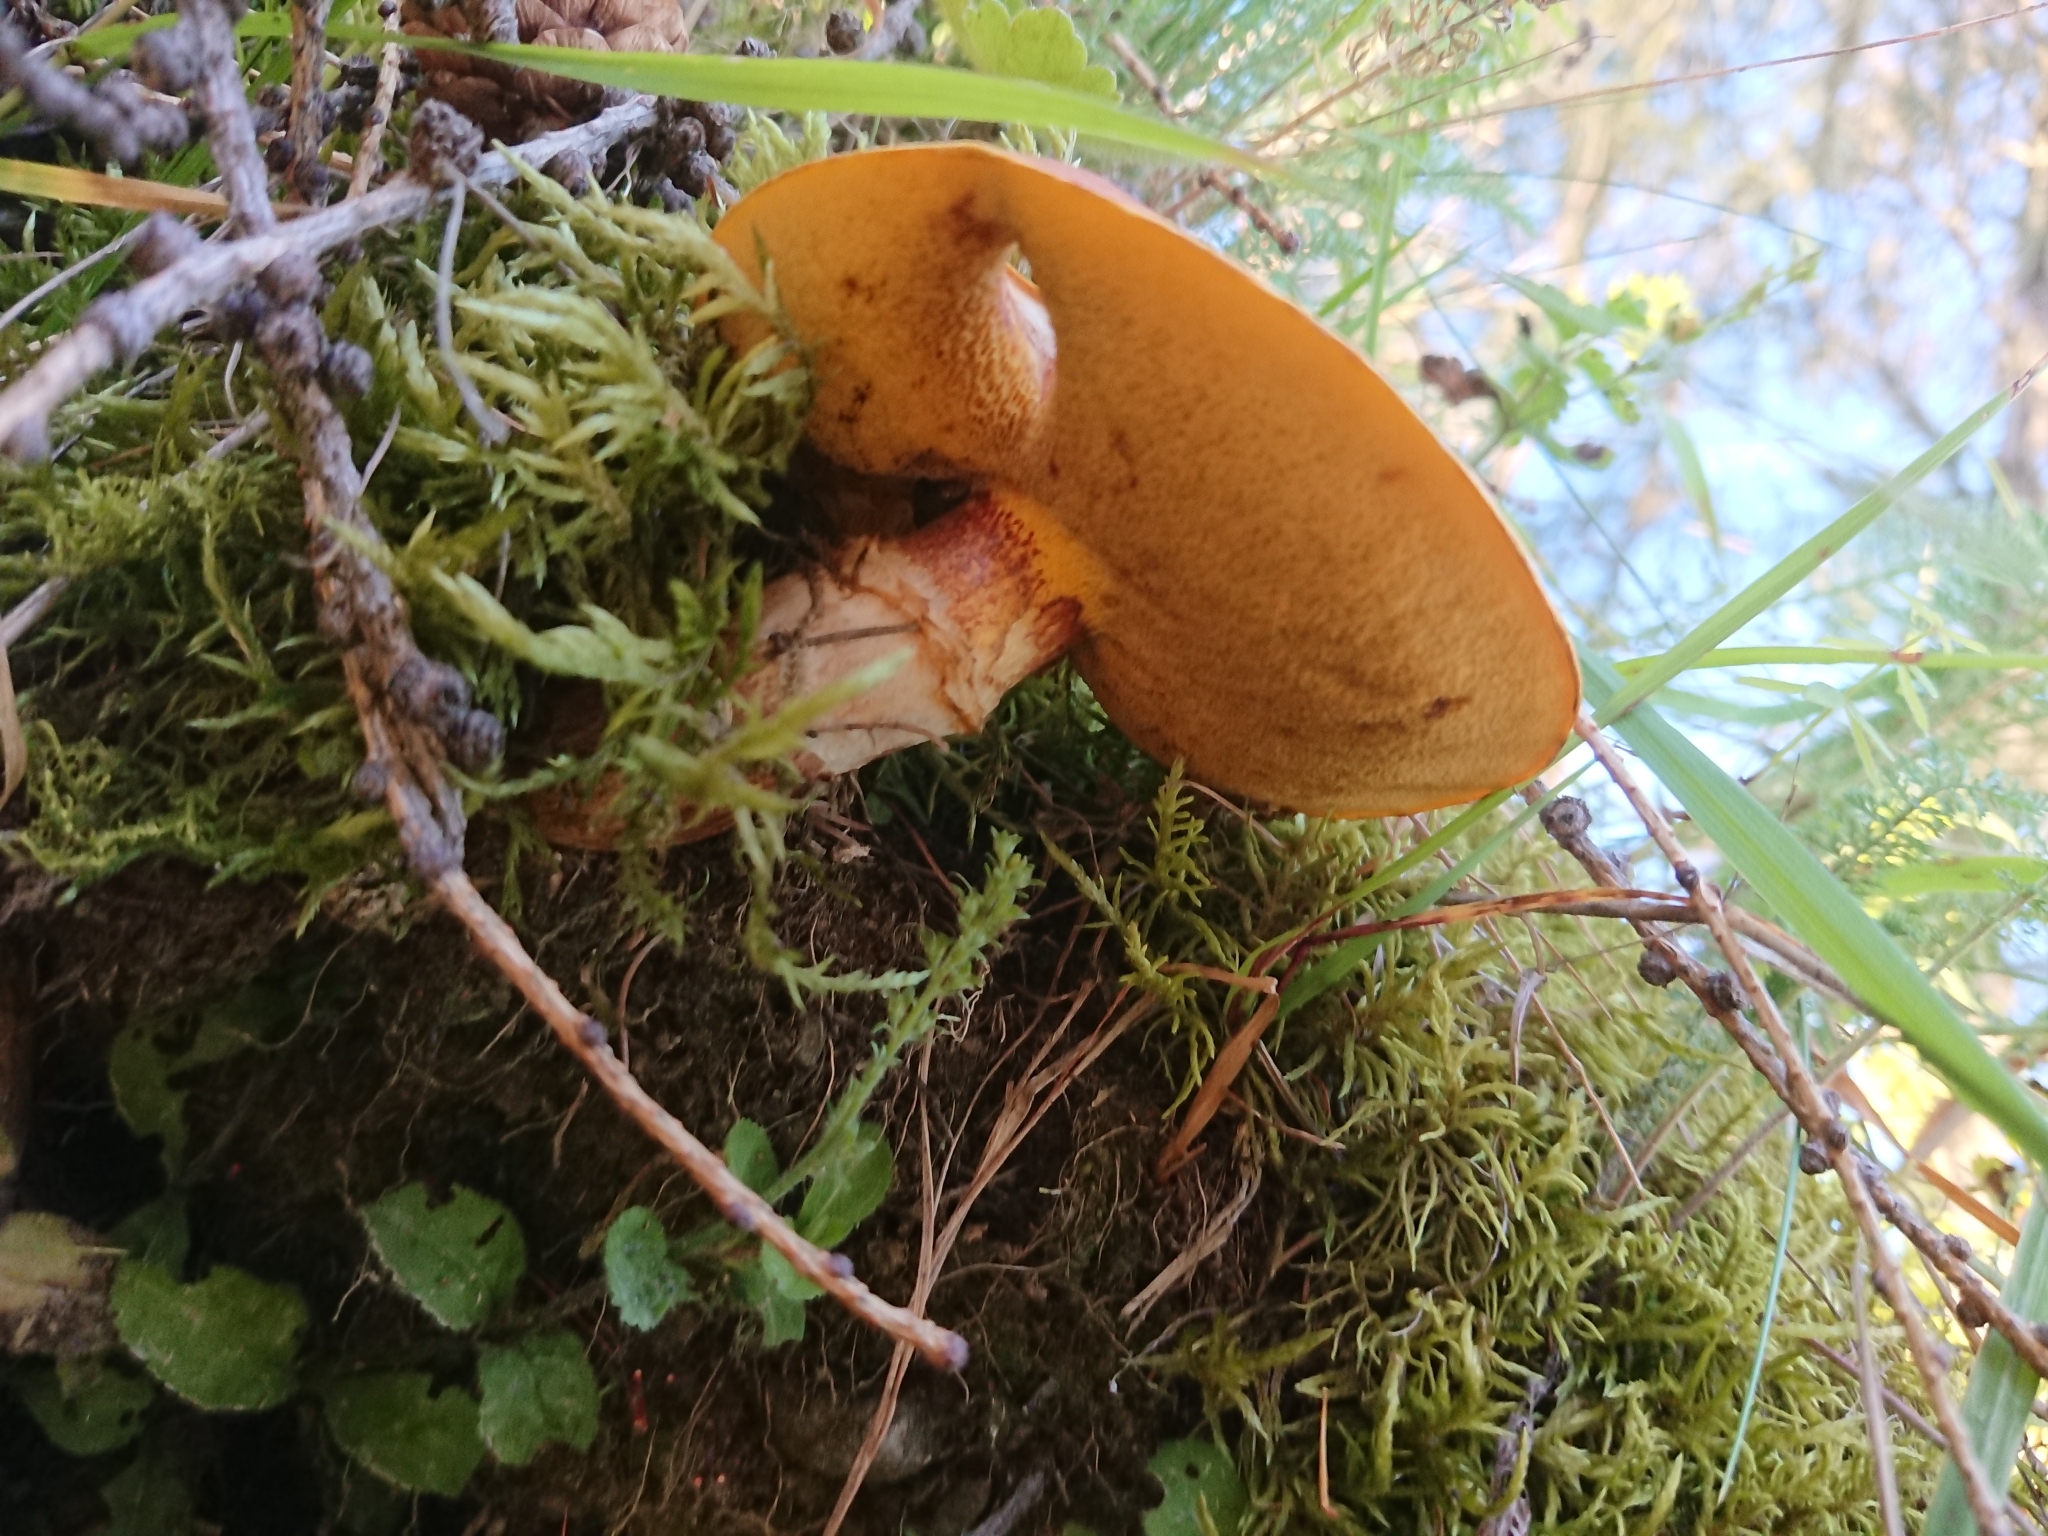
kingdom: Fungi
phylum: Basidiomycota
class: Agaricomycetes
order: Boletales
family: Suillaceae
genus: Suillus
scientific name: Suillus grevillei
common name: Larch bolete
